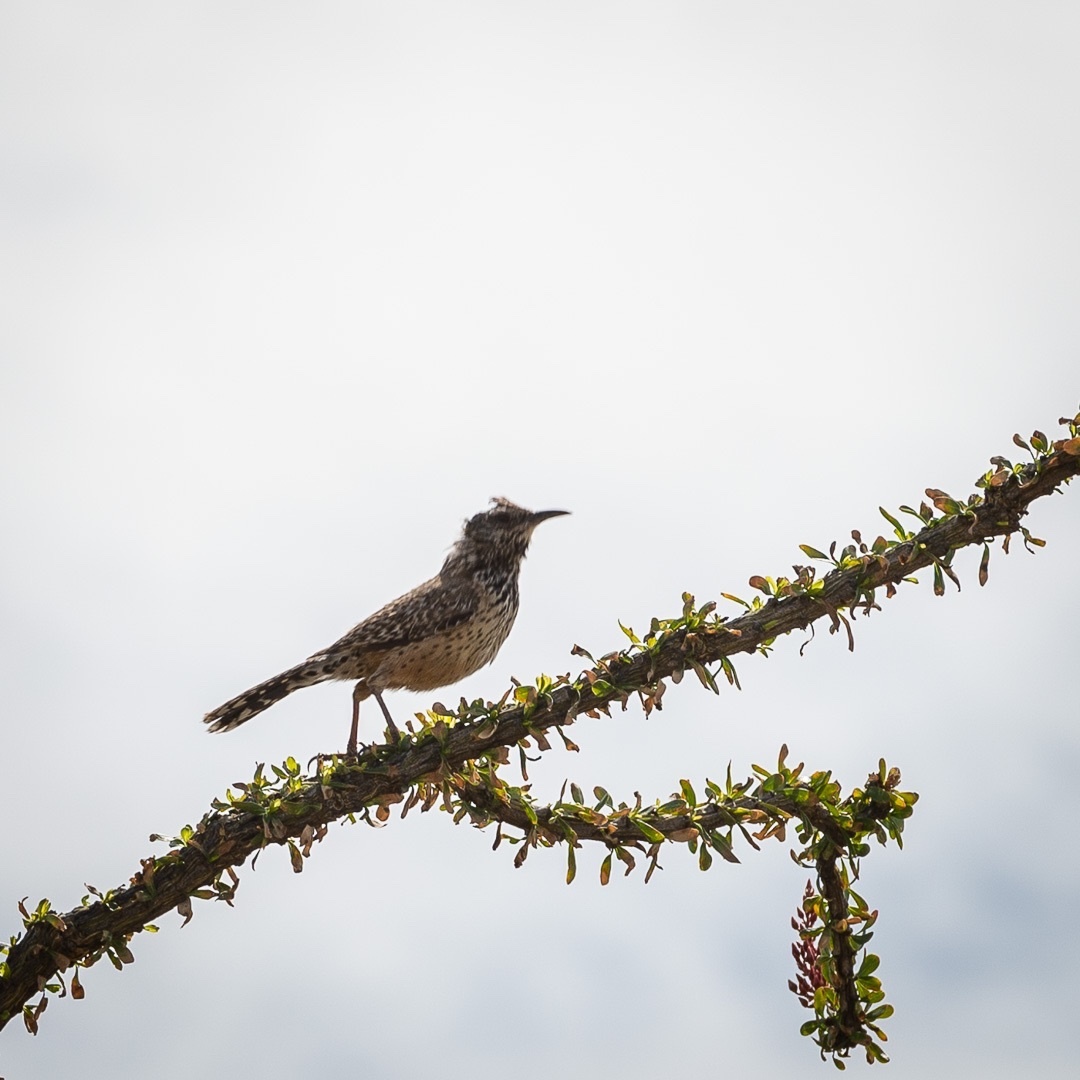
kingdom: Animalia
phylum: Chordata
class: Aves
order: Passeriformes
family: Troglodytidae
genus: Campylorhynchus
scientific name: Campylorhynchus brunneicapillus
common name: Cactus wren
